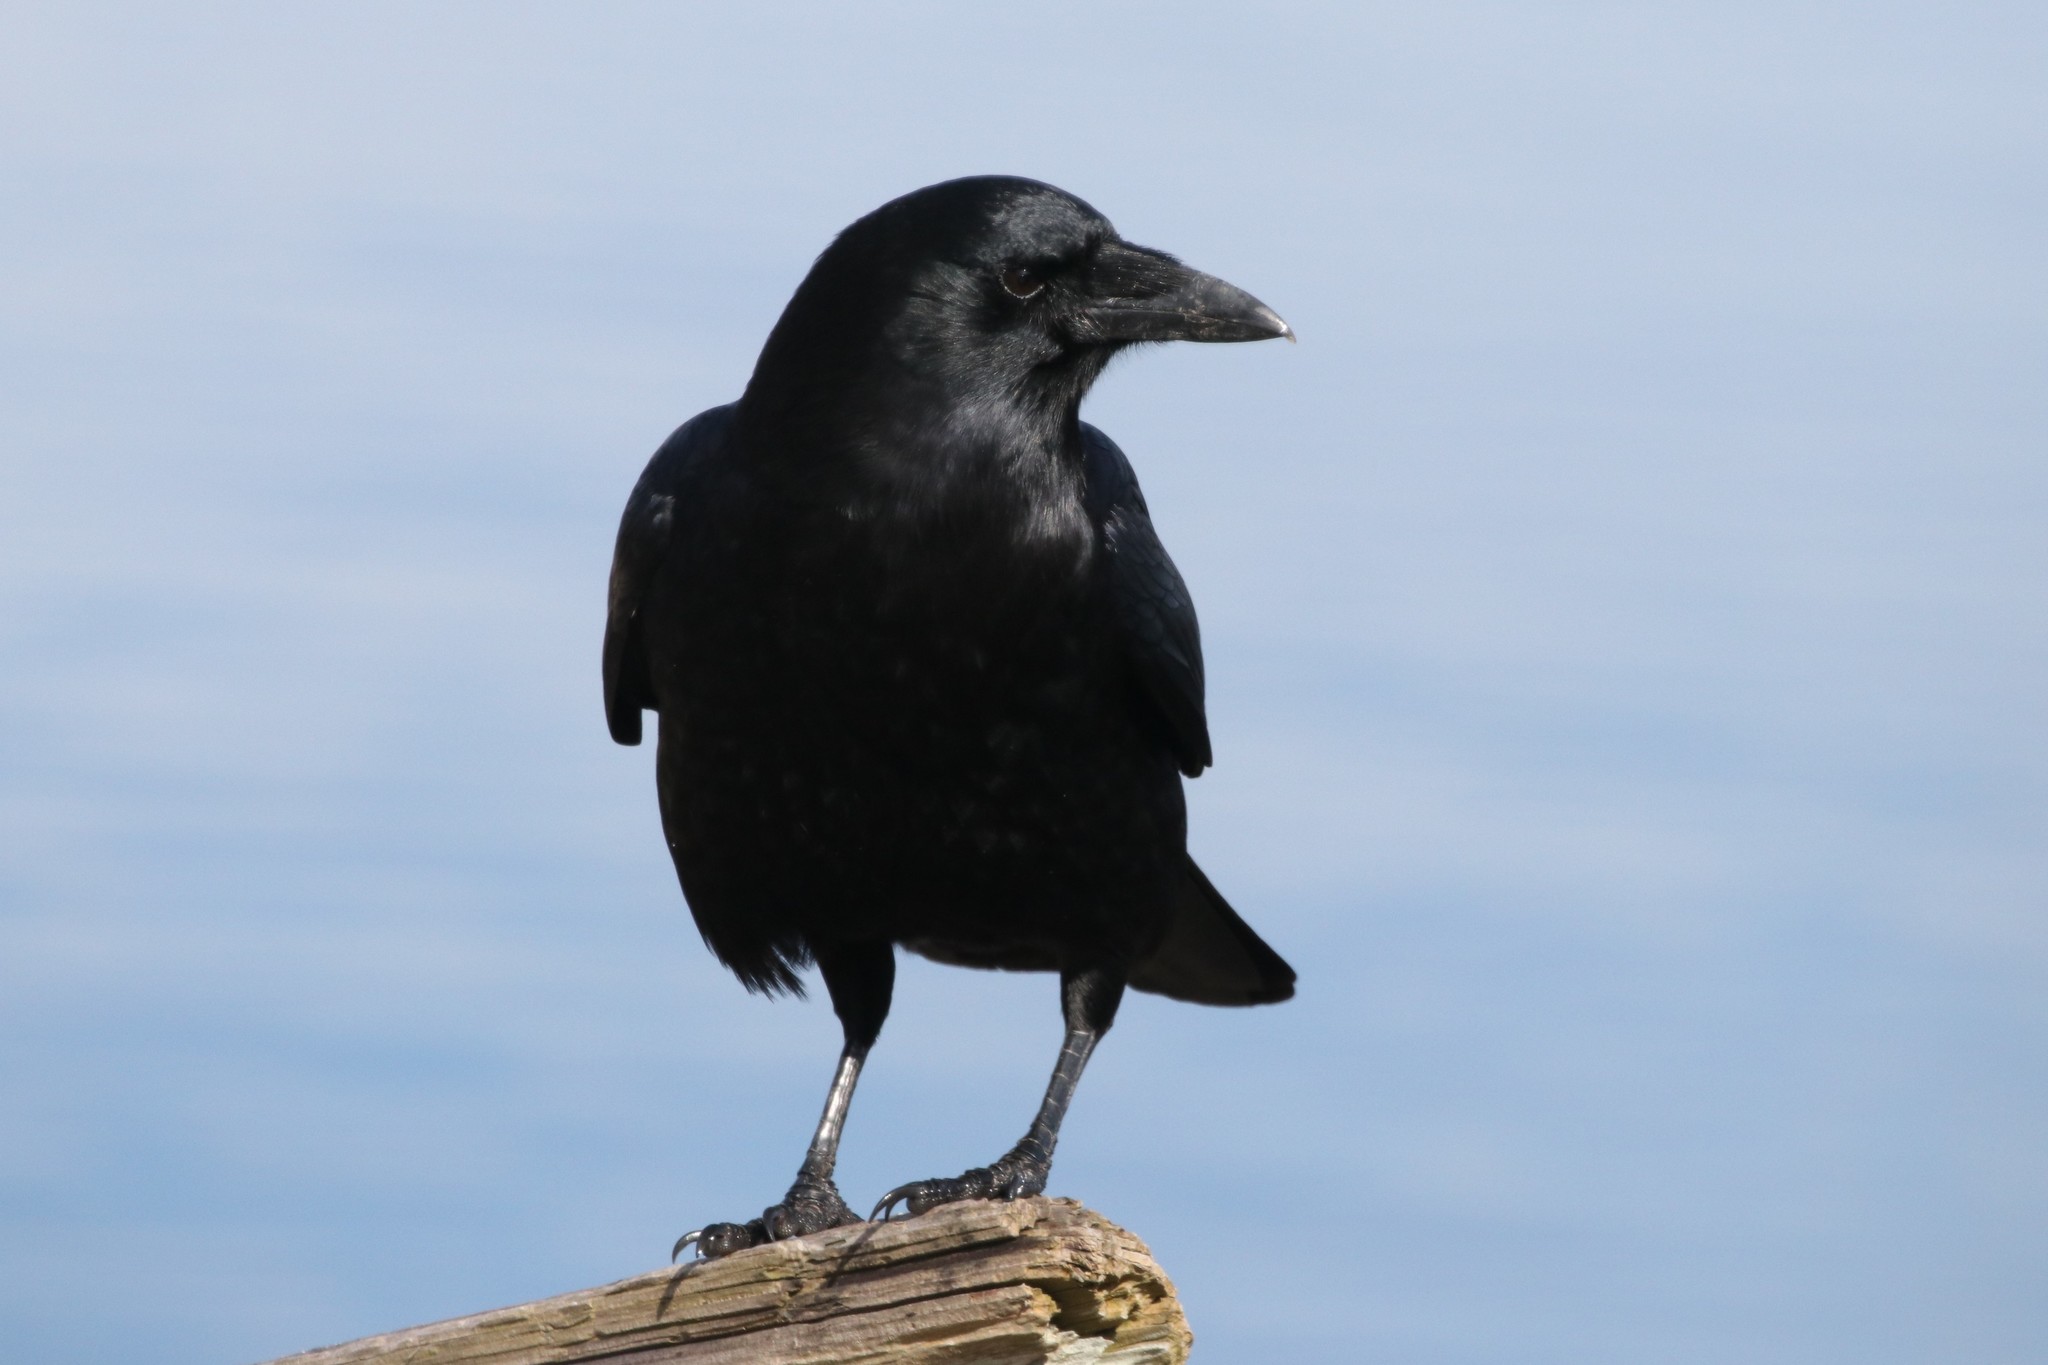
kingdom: Animalia
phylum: Chordata
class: Aves
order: Passeriformes
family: Corvidae
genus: Corvus
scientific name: Corvus brachyrhynchos
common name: American crow
